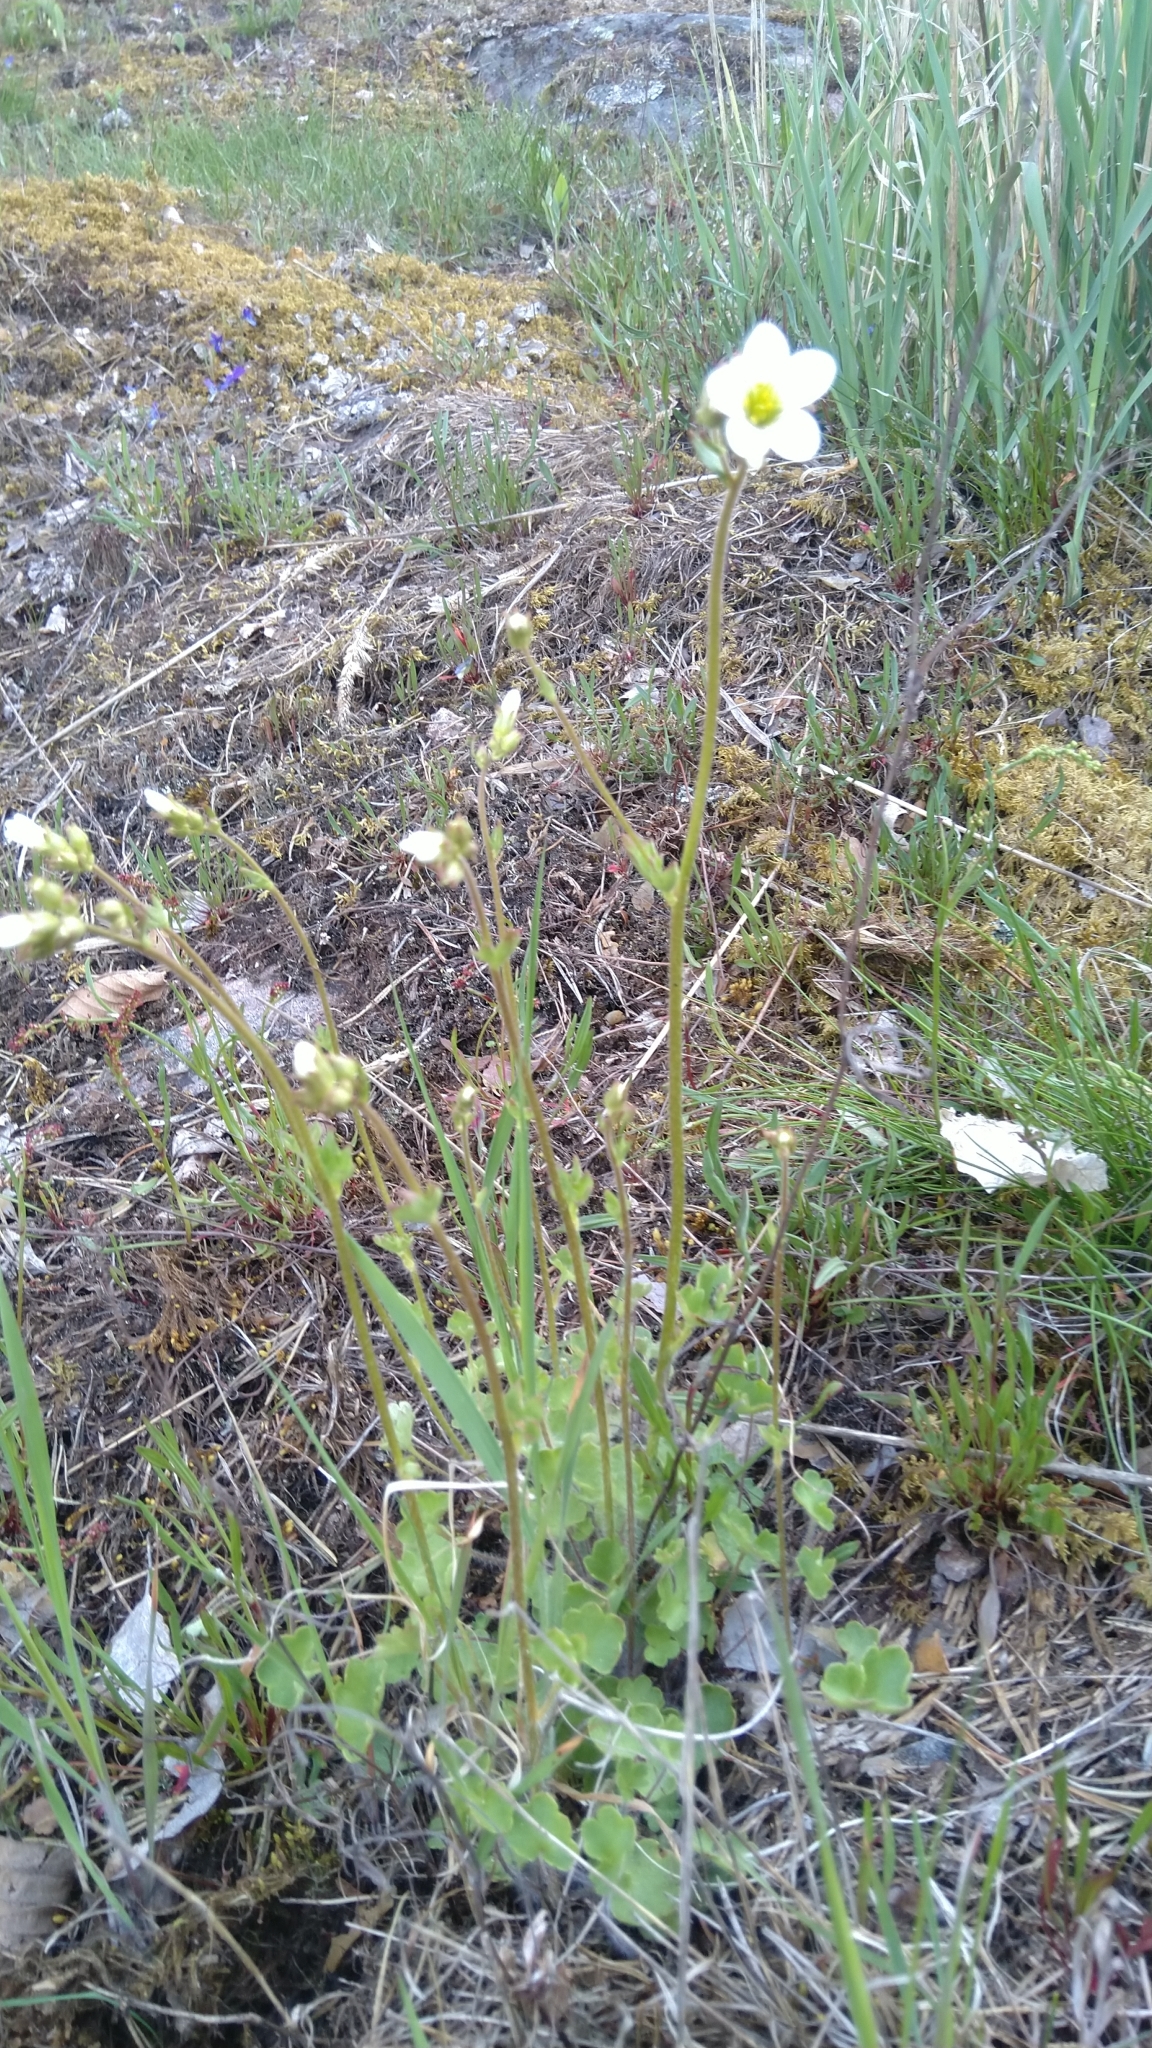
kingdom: Plantae
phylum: Tracheophyta
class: Magnoliopsida
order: Saxifragales
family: Saxifragaceae
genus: Saxifraga
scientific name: Saxifraga granulata
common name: Meadow saxifrage
